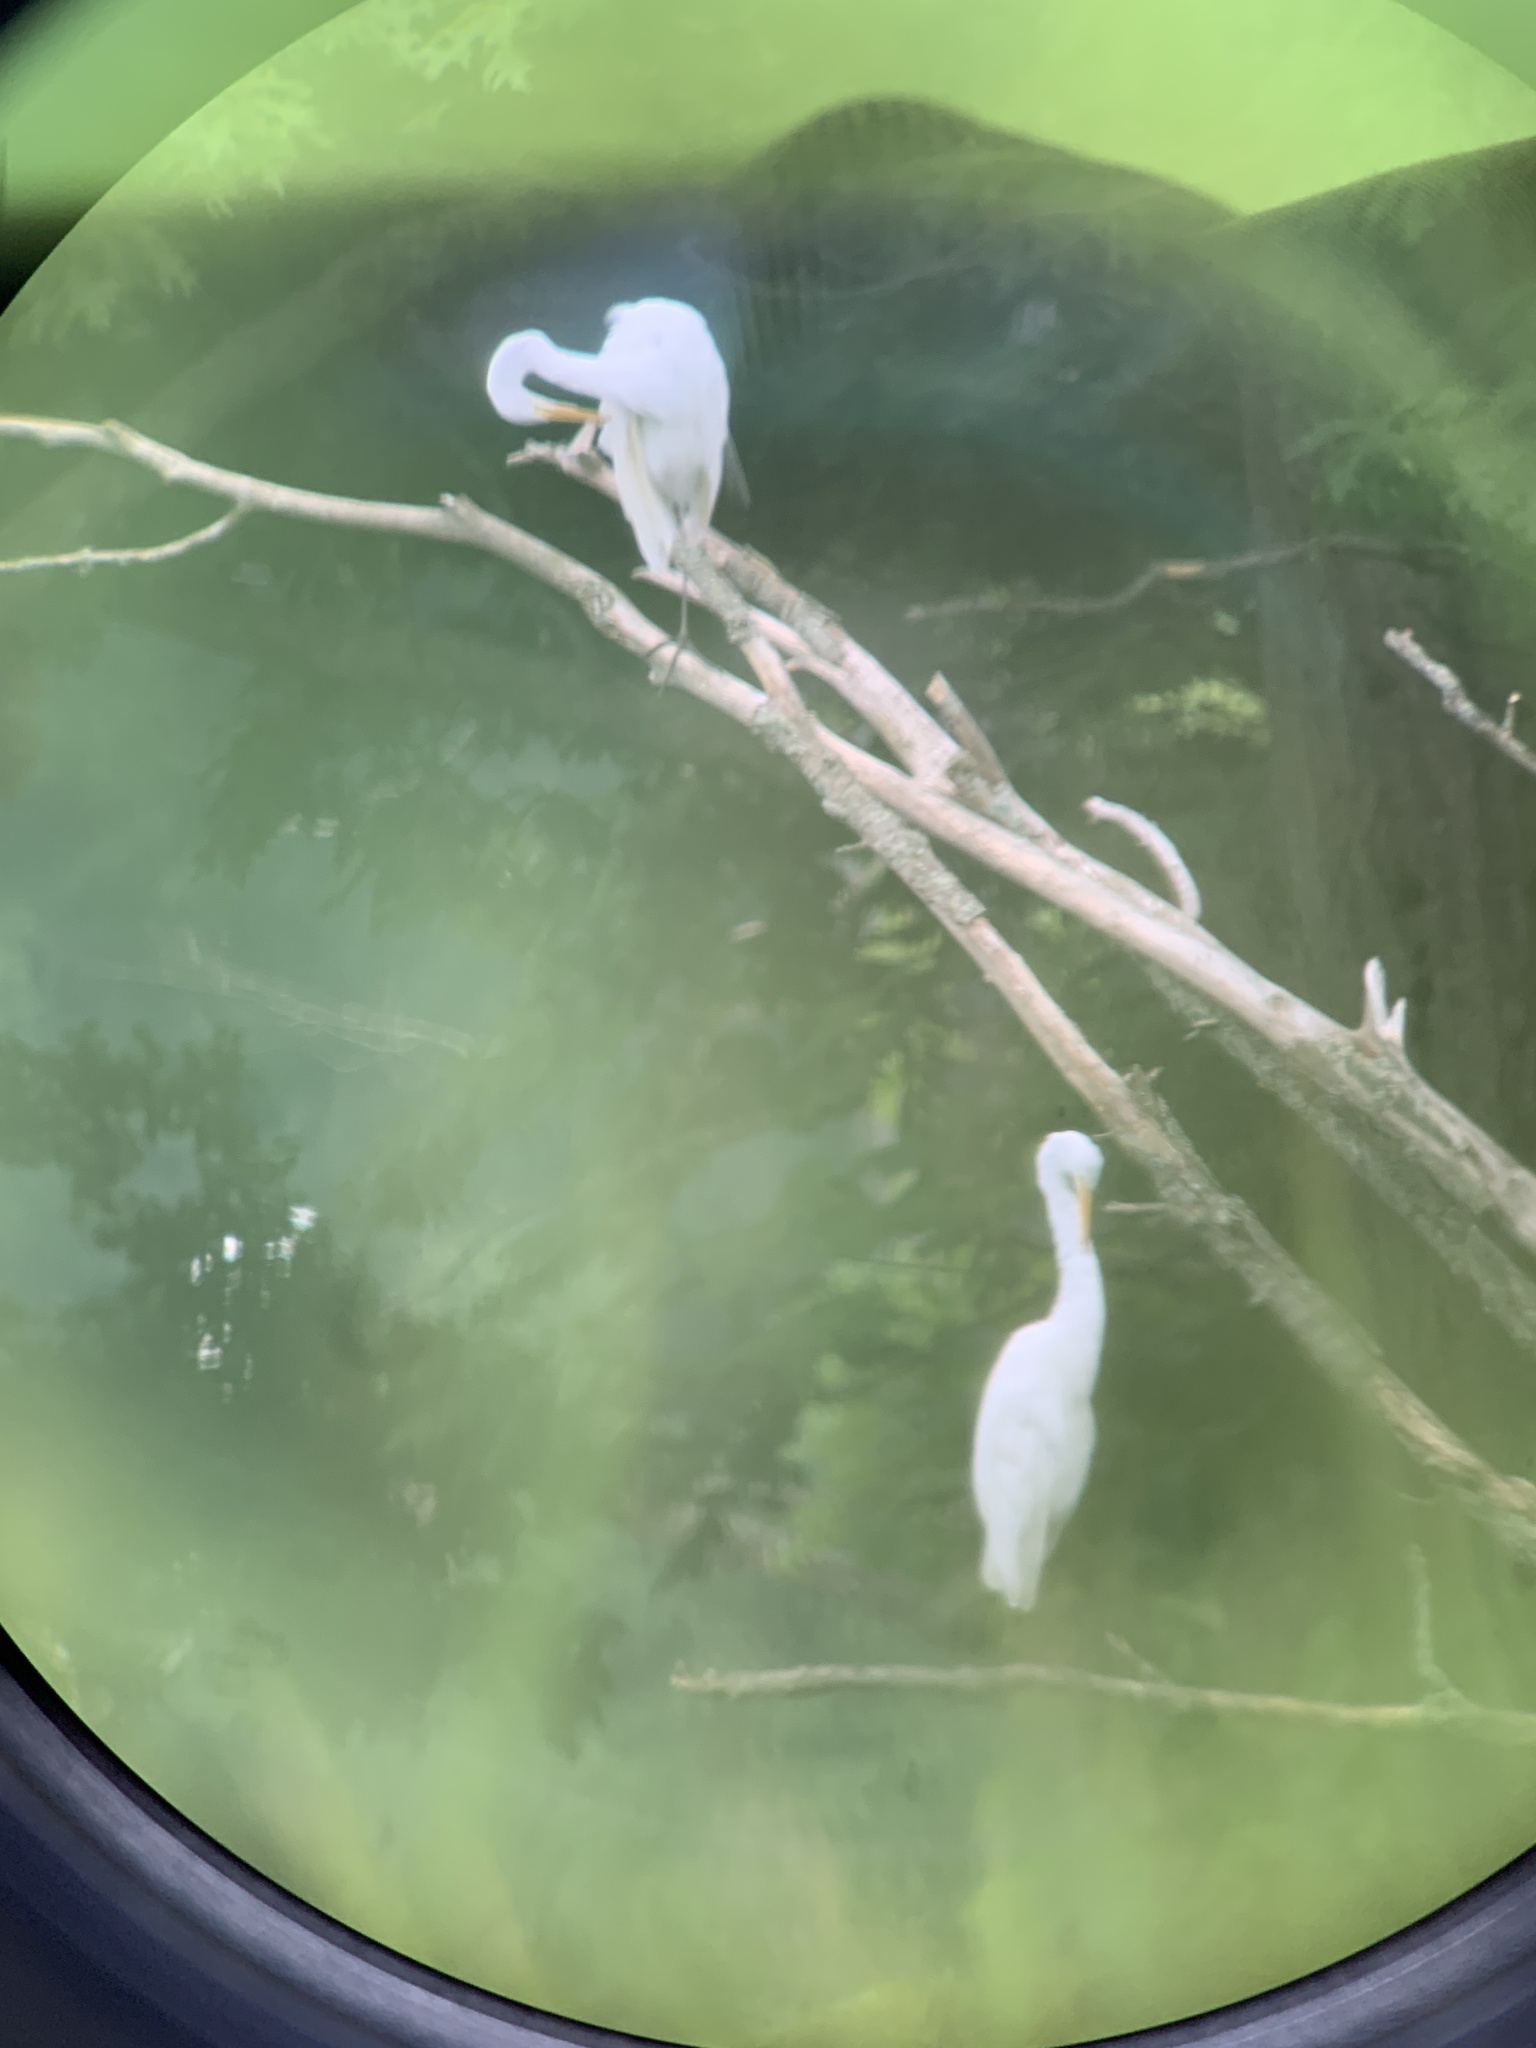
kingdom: Animalia
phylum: Chordata
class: Aves
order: Pelecaniformes
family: Ardeidae
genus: Ardea
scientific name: Ardea alba
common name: Great egret
